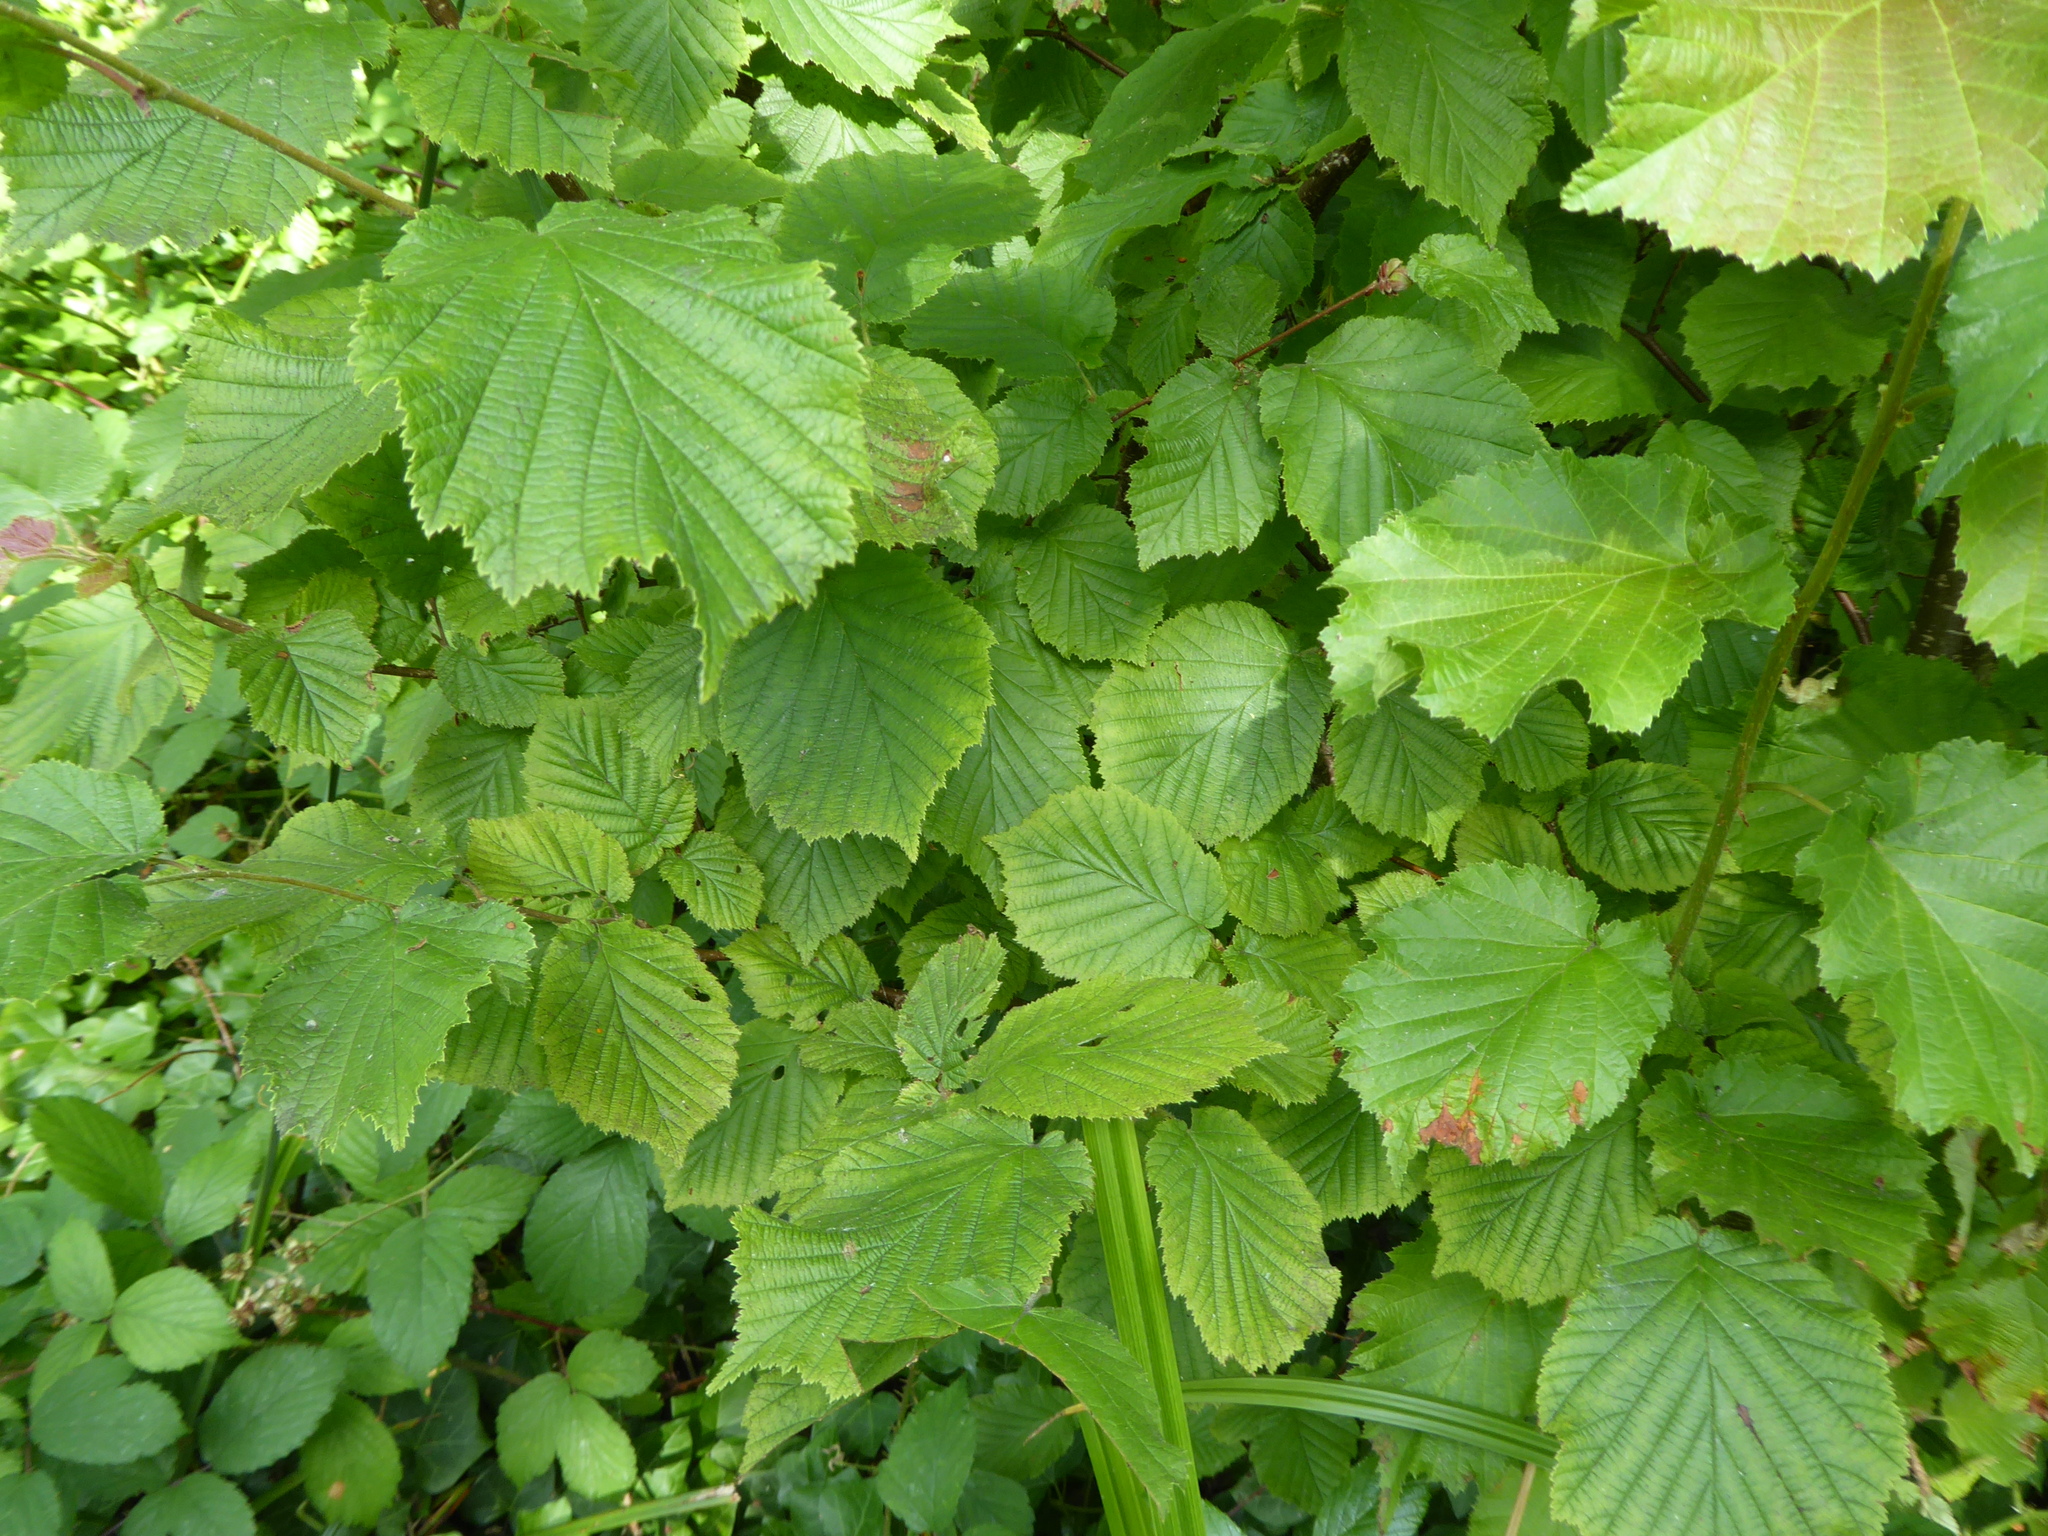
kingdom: Plantae
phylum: Tracheophyta
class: Magnoliopsida
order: Fagales
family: Betulaceae
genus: Corylus
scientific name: Corylus avellana
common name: European hazel
